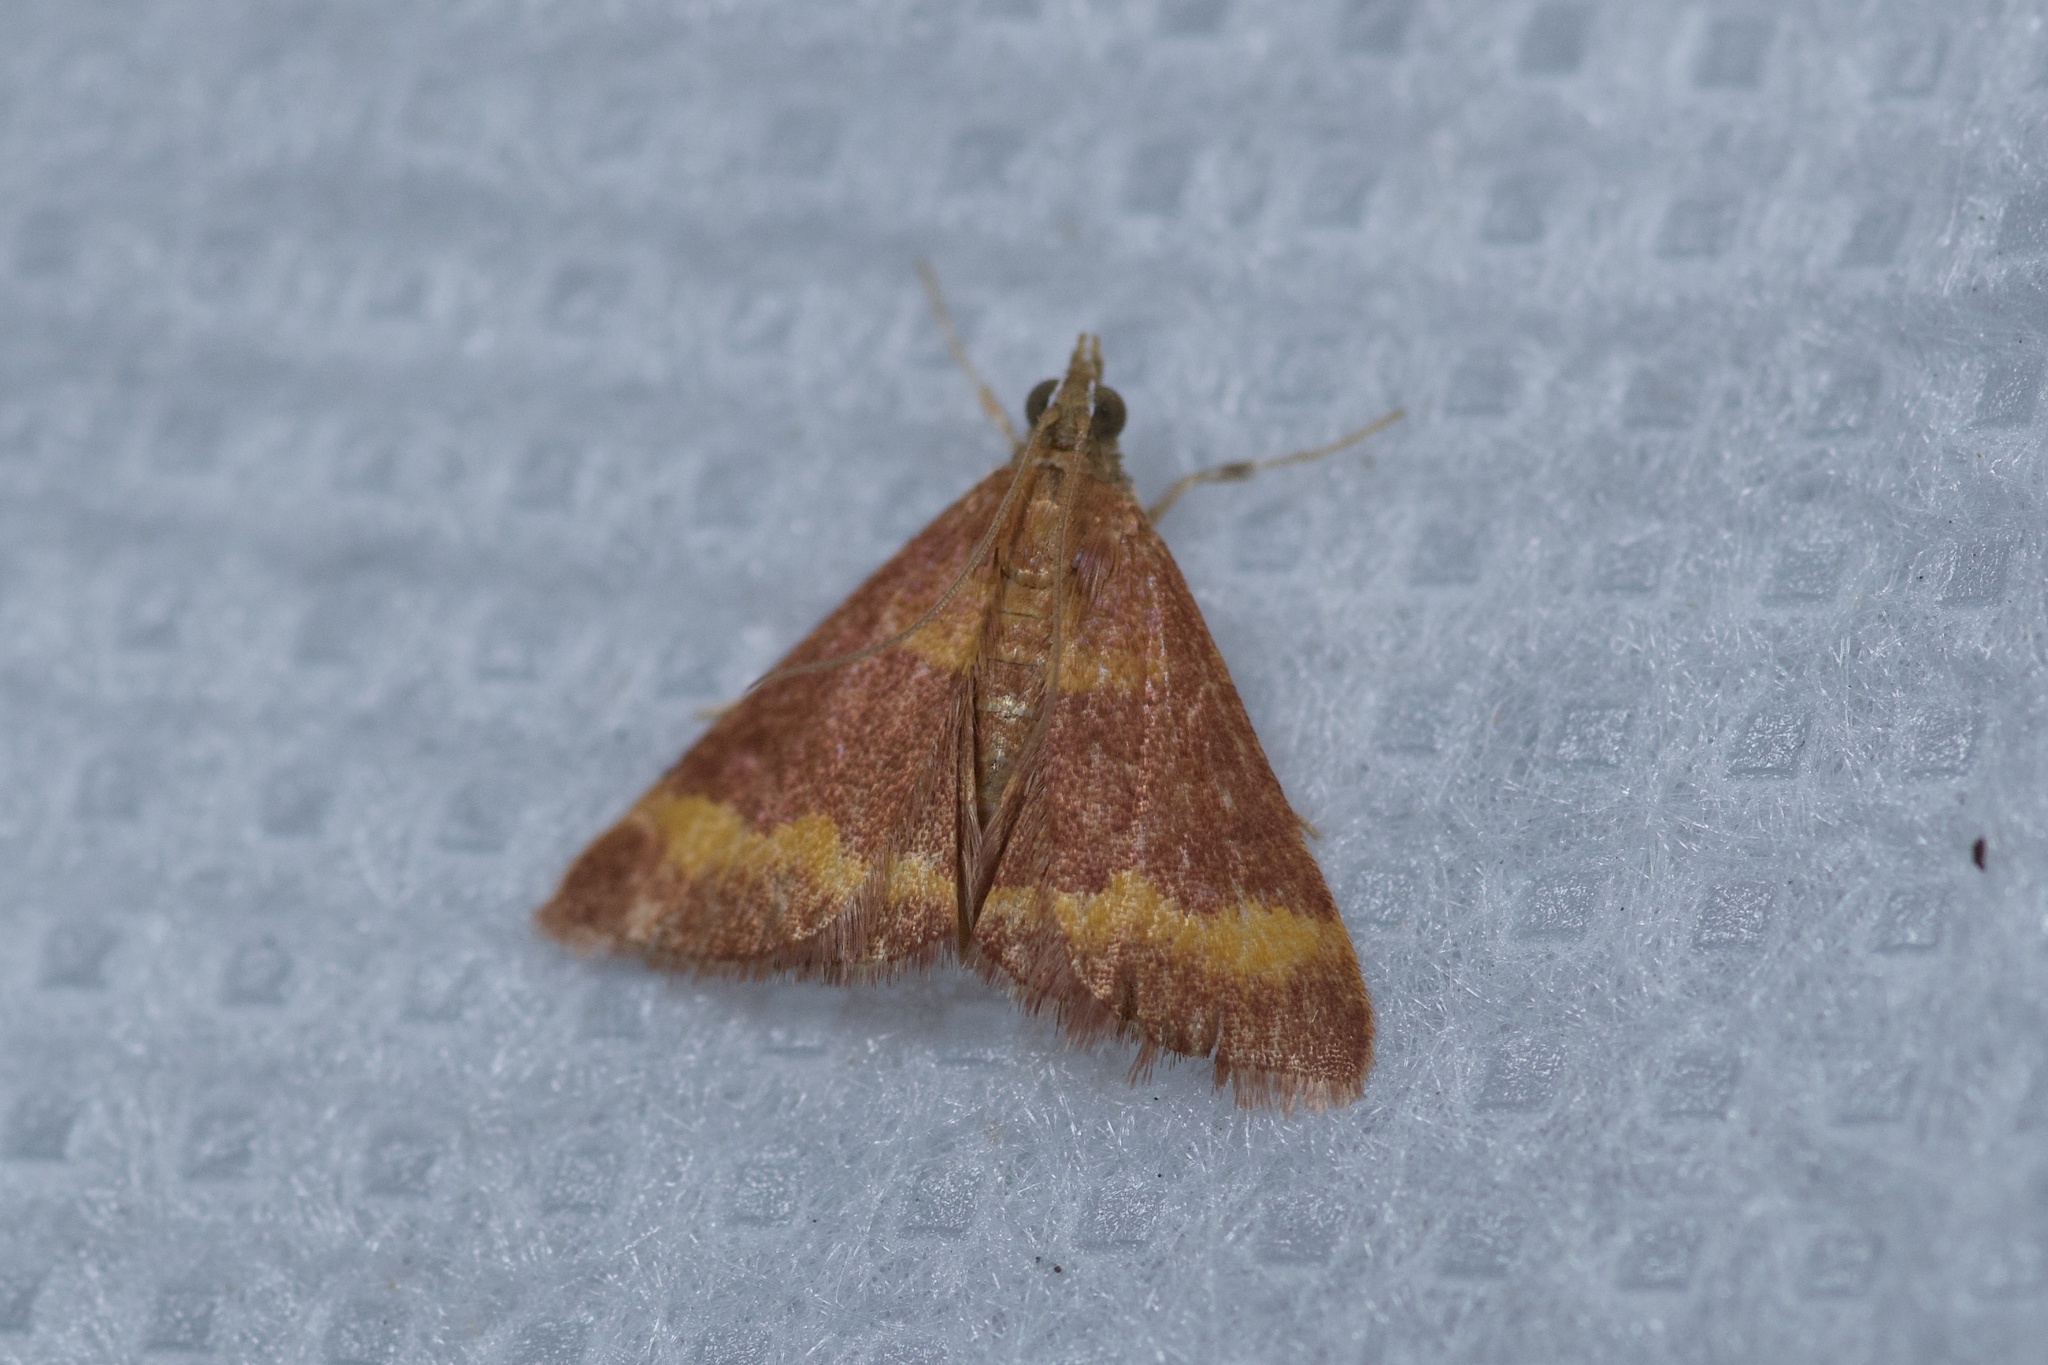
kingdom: Animalia
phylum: Arthropoda
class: Insecta
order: Lepidoptera
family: Crambidae
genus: Pyrausta
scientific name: Pyrausta pseuderosnealis
